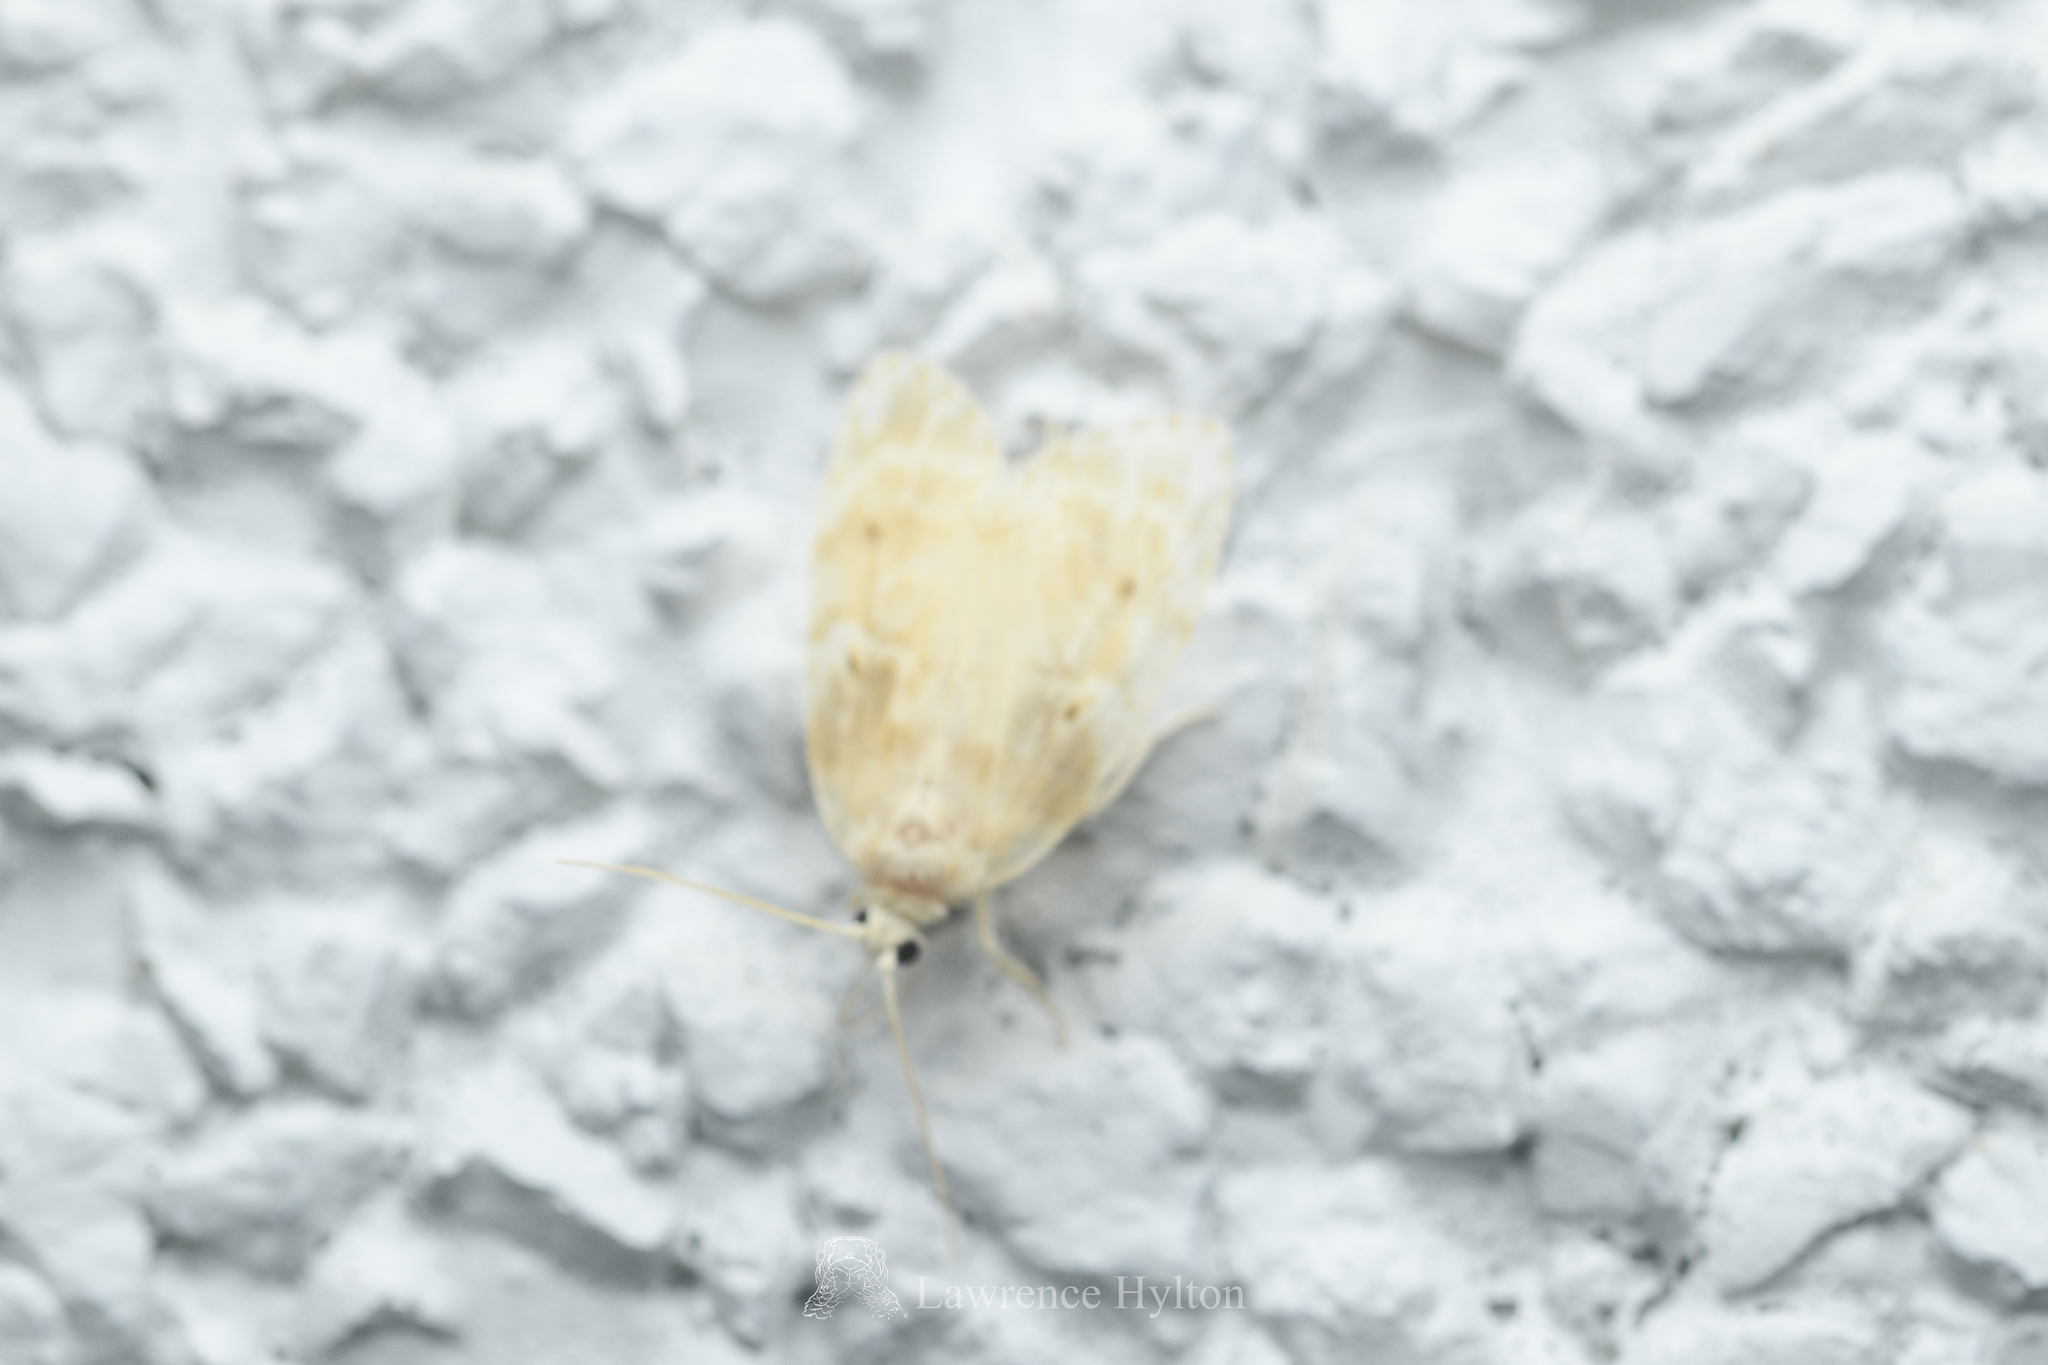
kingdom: Animalia
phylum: Arthropoda
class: Insecta
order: Lepidoptera
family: Erebidae
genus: Schistophleps
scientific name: Schistophleps bipuncta
